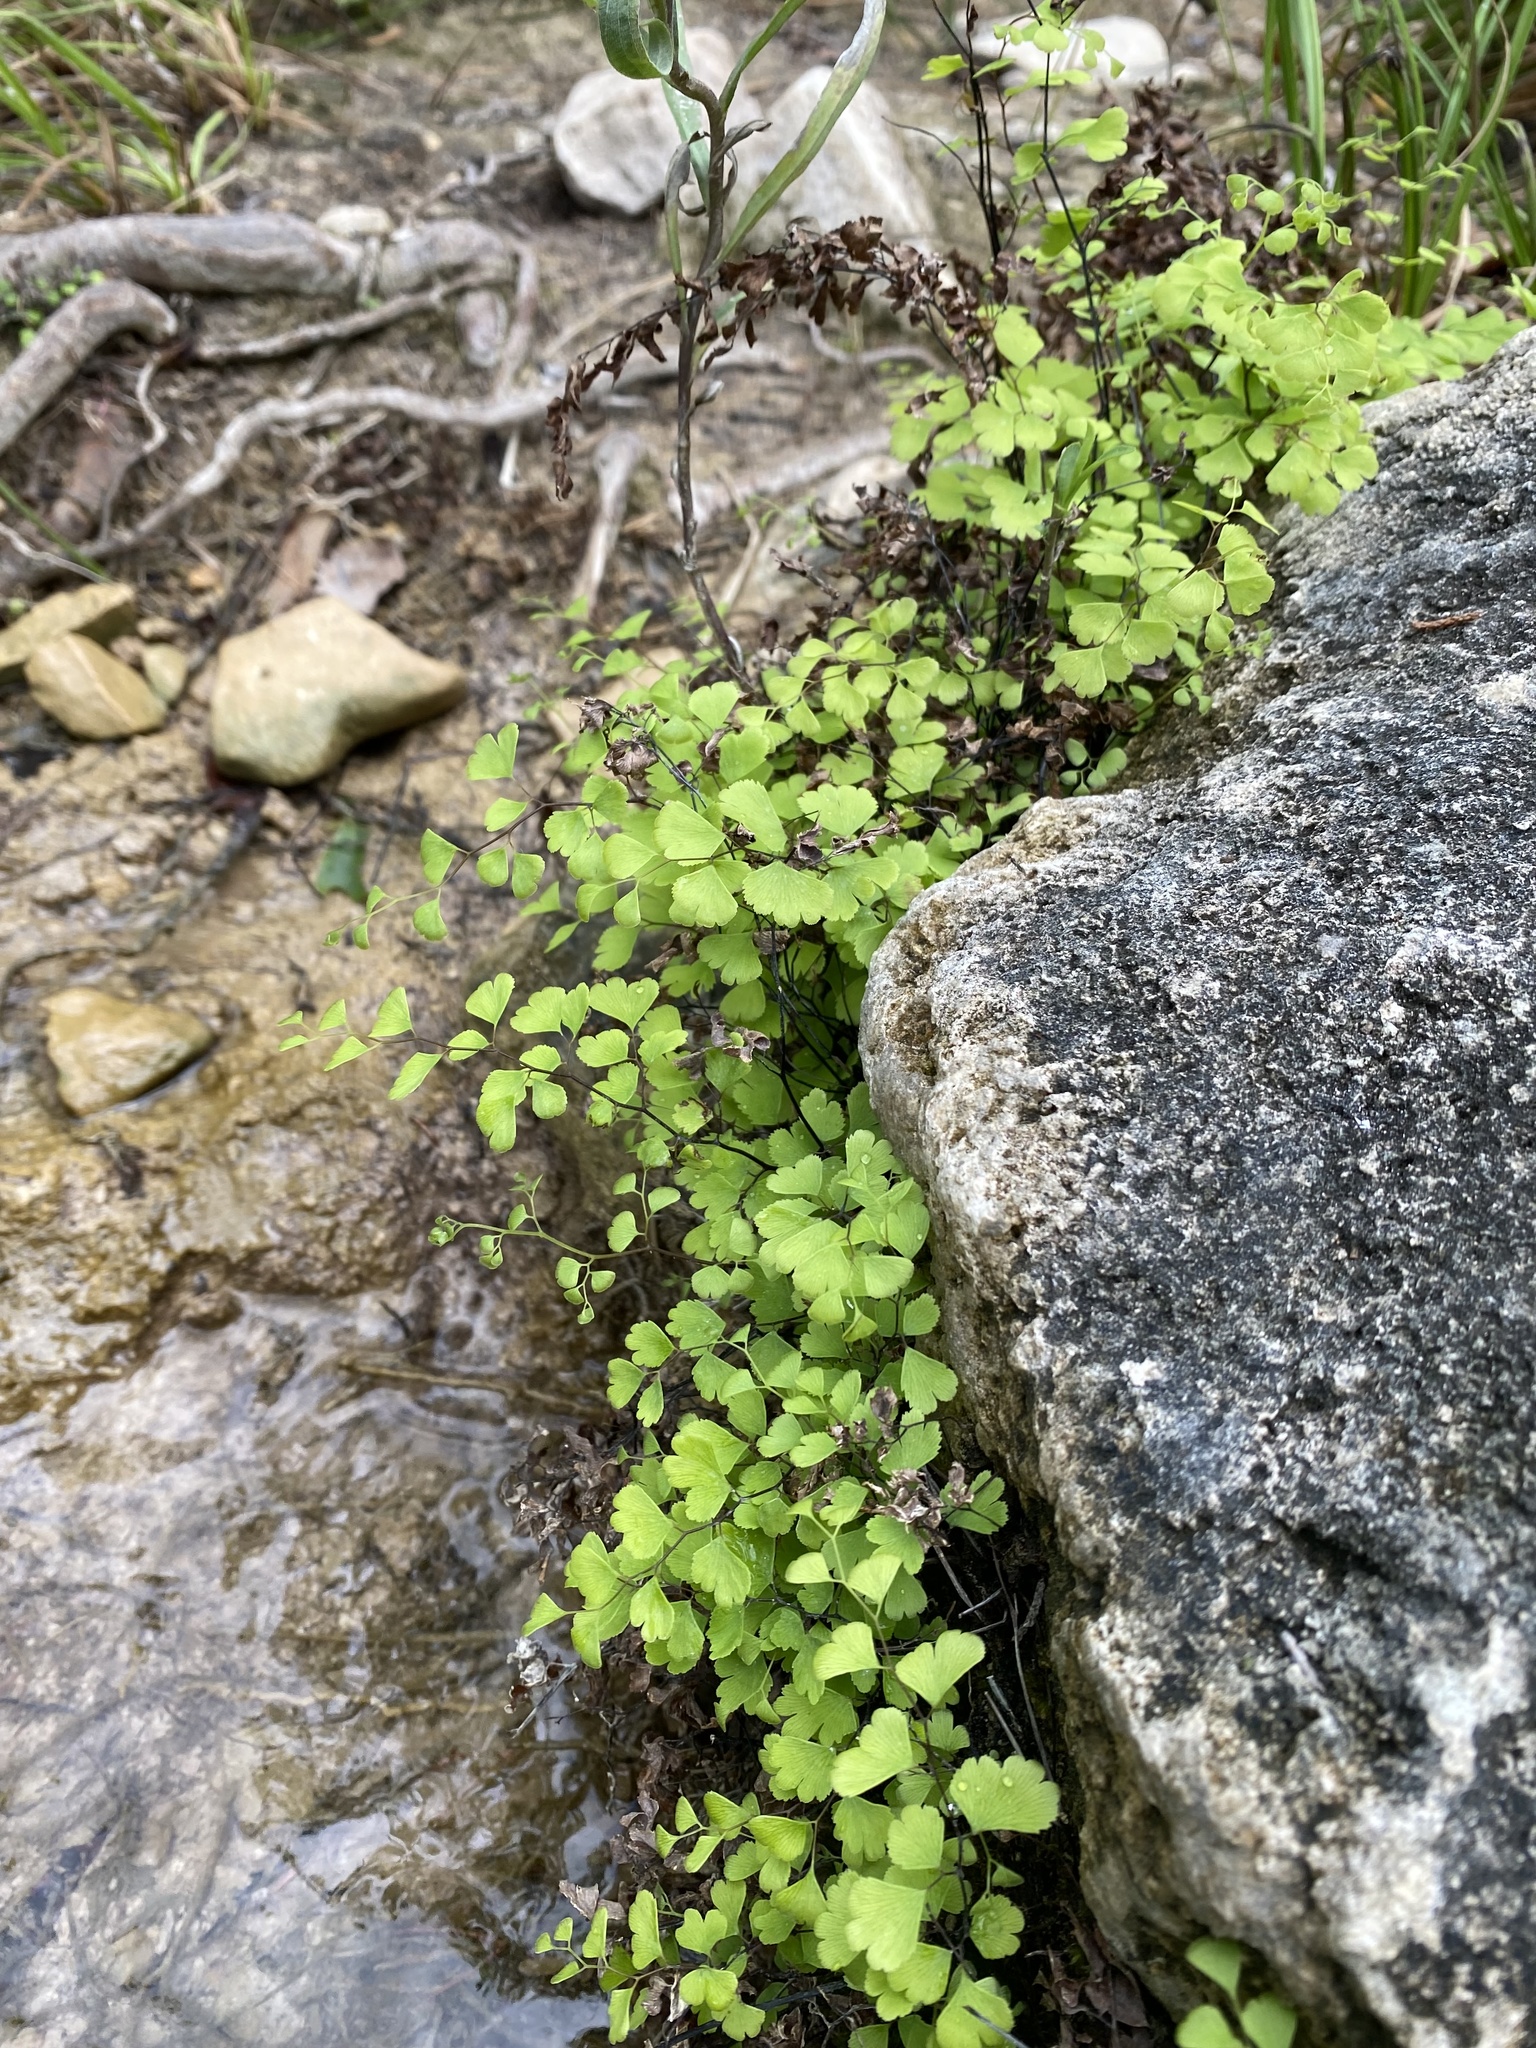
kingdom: Plantae
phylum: Tracheophyta
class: Polypodiopsida
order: Polypodiales
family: Pteridaceae
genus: Adiantum
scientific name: Adiantum capillus-veneris
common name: Maidenhair fern
